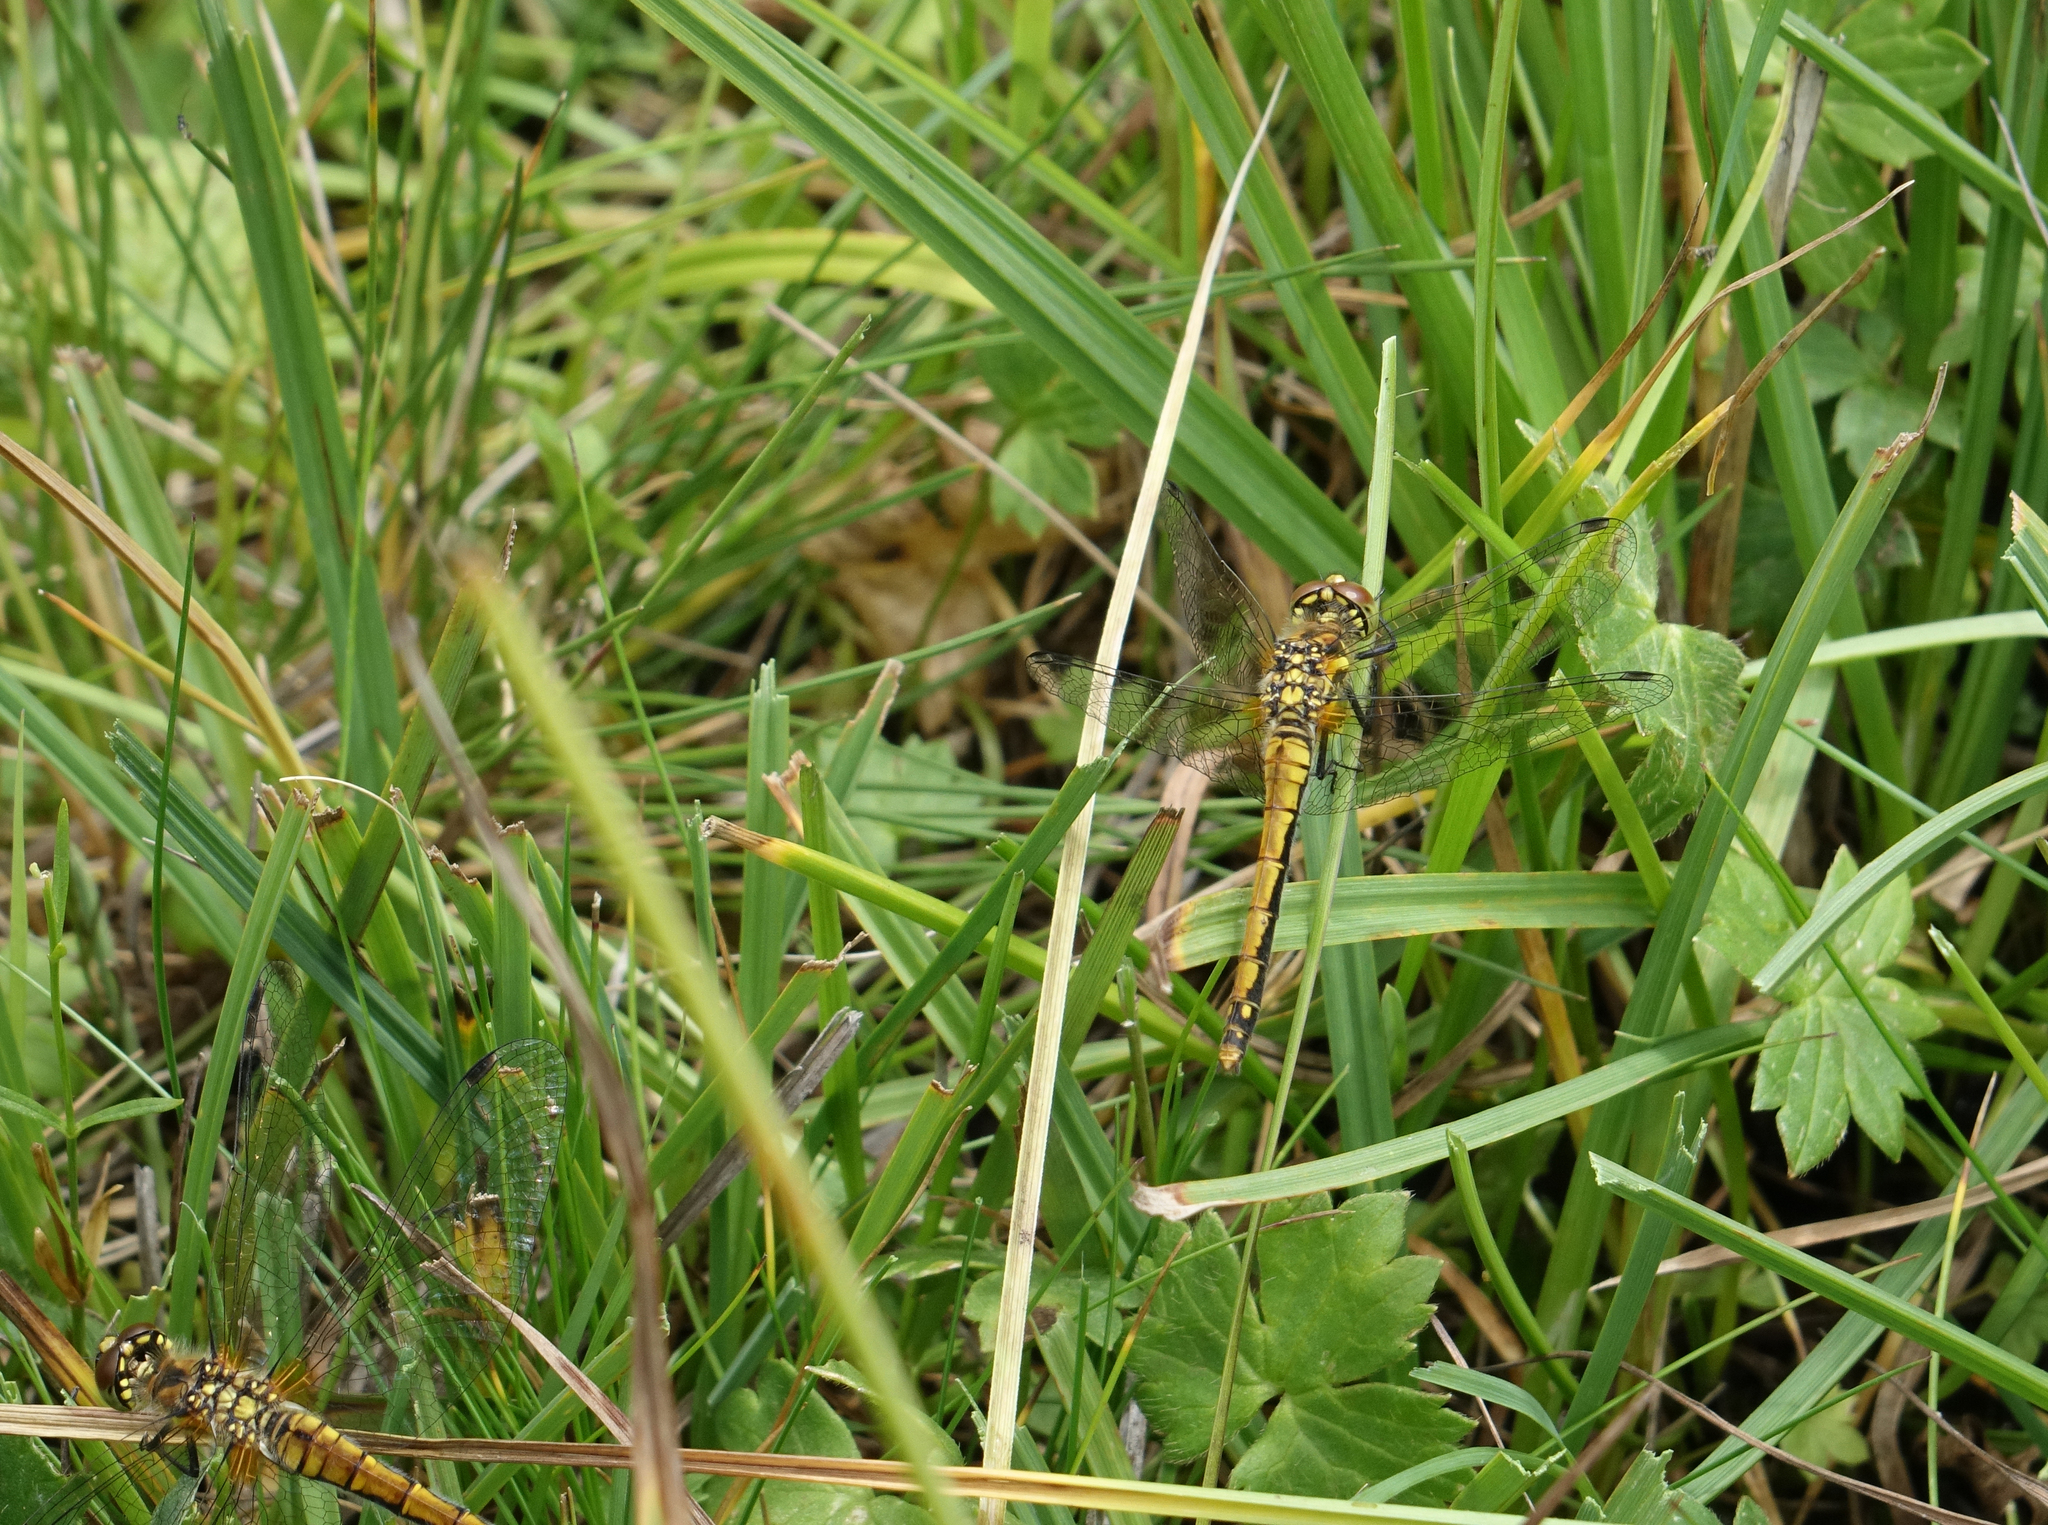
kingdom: Animalia
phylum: Arthropoda
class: Insecta
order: Odonata
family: Libellulidae
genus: Sympetrum
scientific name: Sympetrum danae
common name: Black darter
